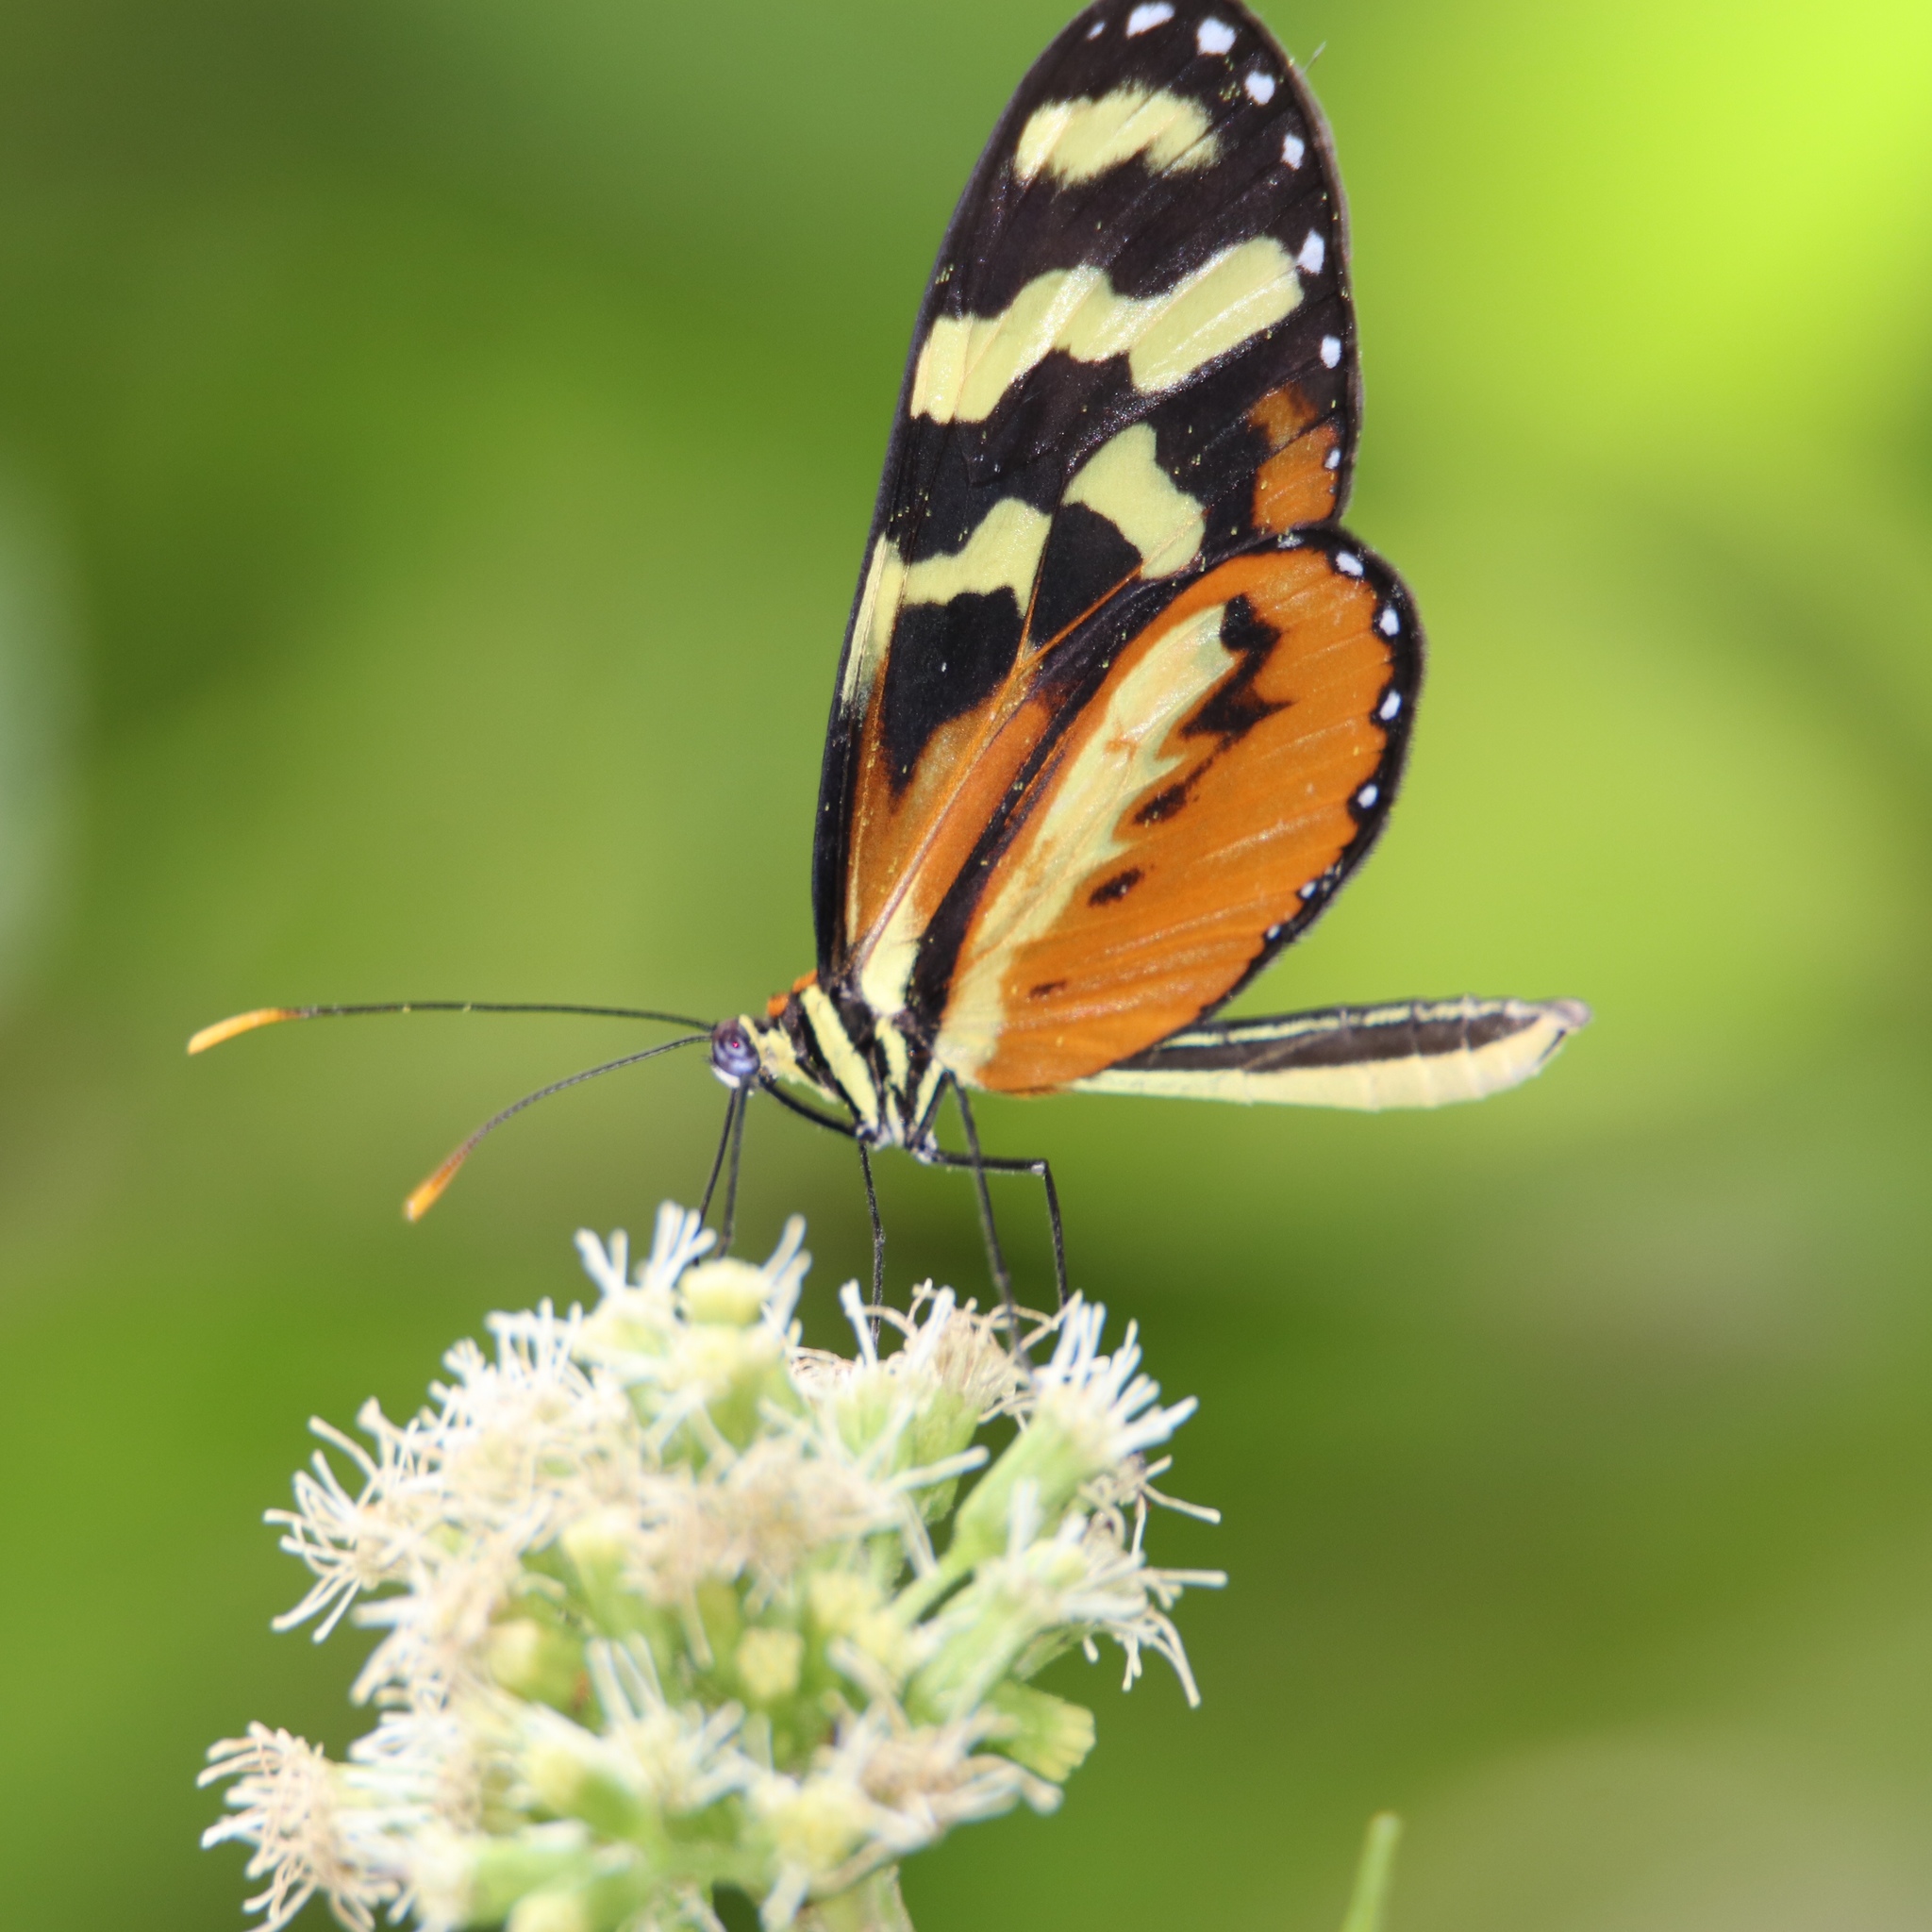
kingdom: Animalia
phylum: Arthropoda
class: Insecta
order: Lepidoptera
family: Nymphalidae
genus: Mechanitis
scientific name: Mechanitis polymnia
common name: Disturbed tigerwing
